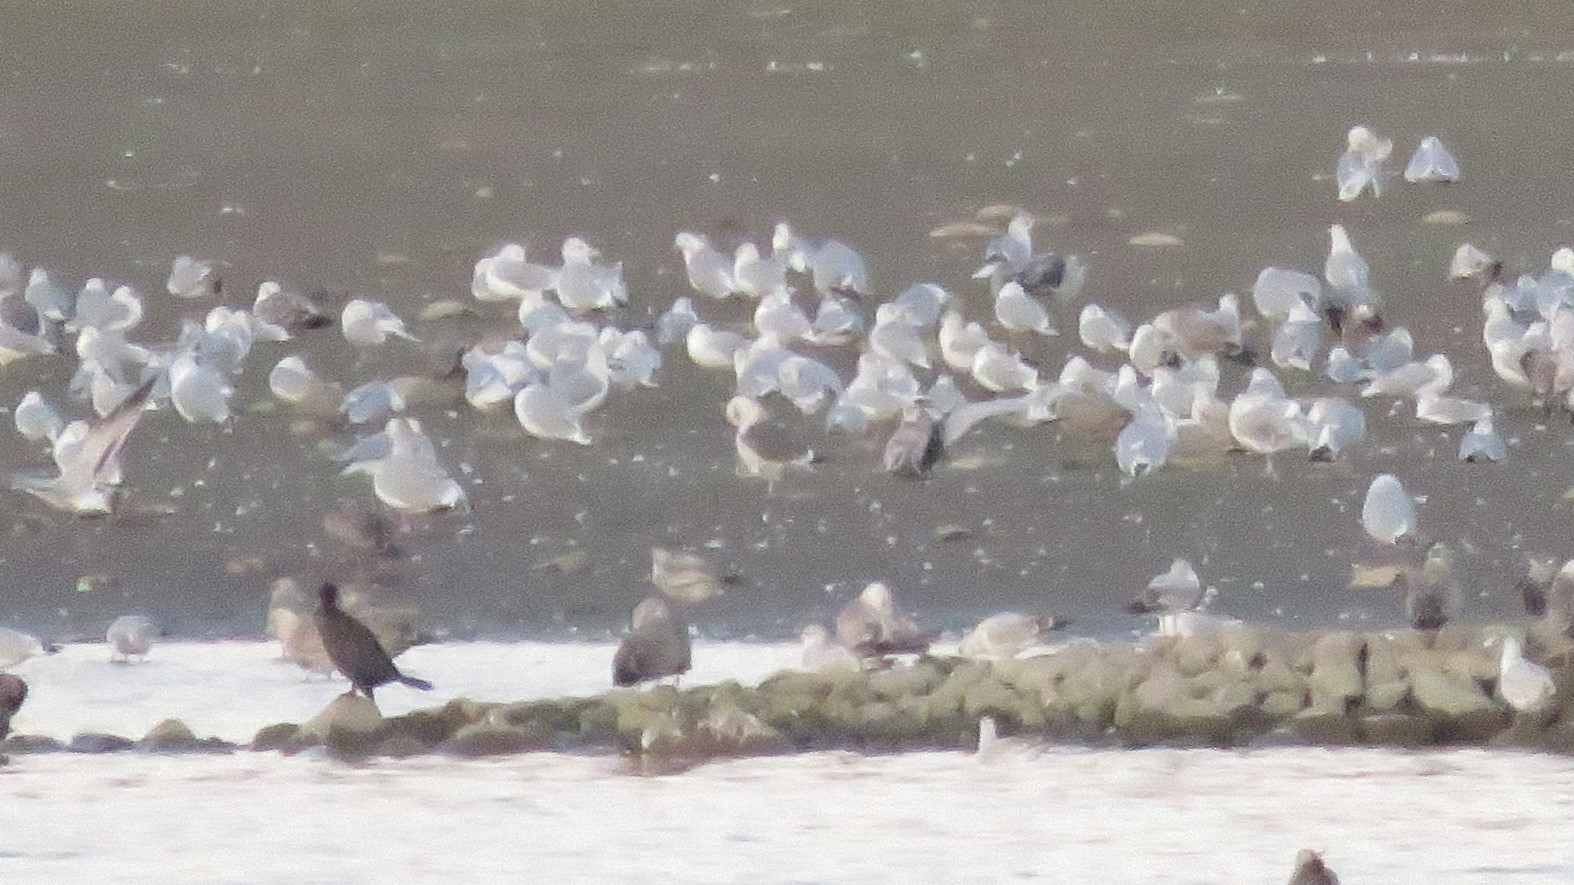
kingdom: Animalia
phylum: Chordata
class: Aves
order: Charadriiformes
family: Laridae
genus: Larus
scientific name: Larus fuscus
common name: Lesser black-backed gull
